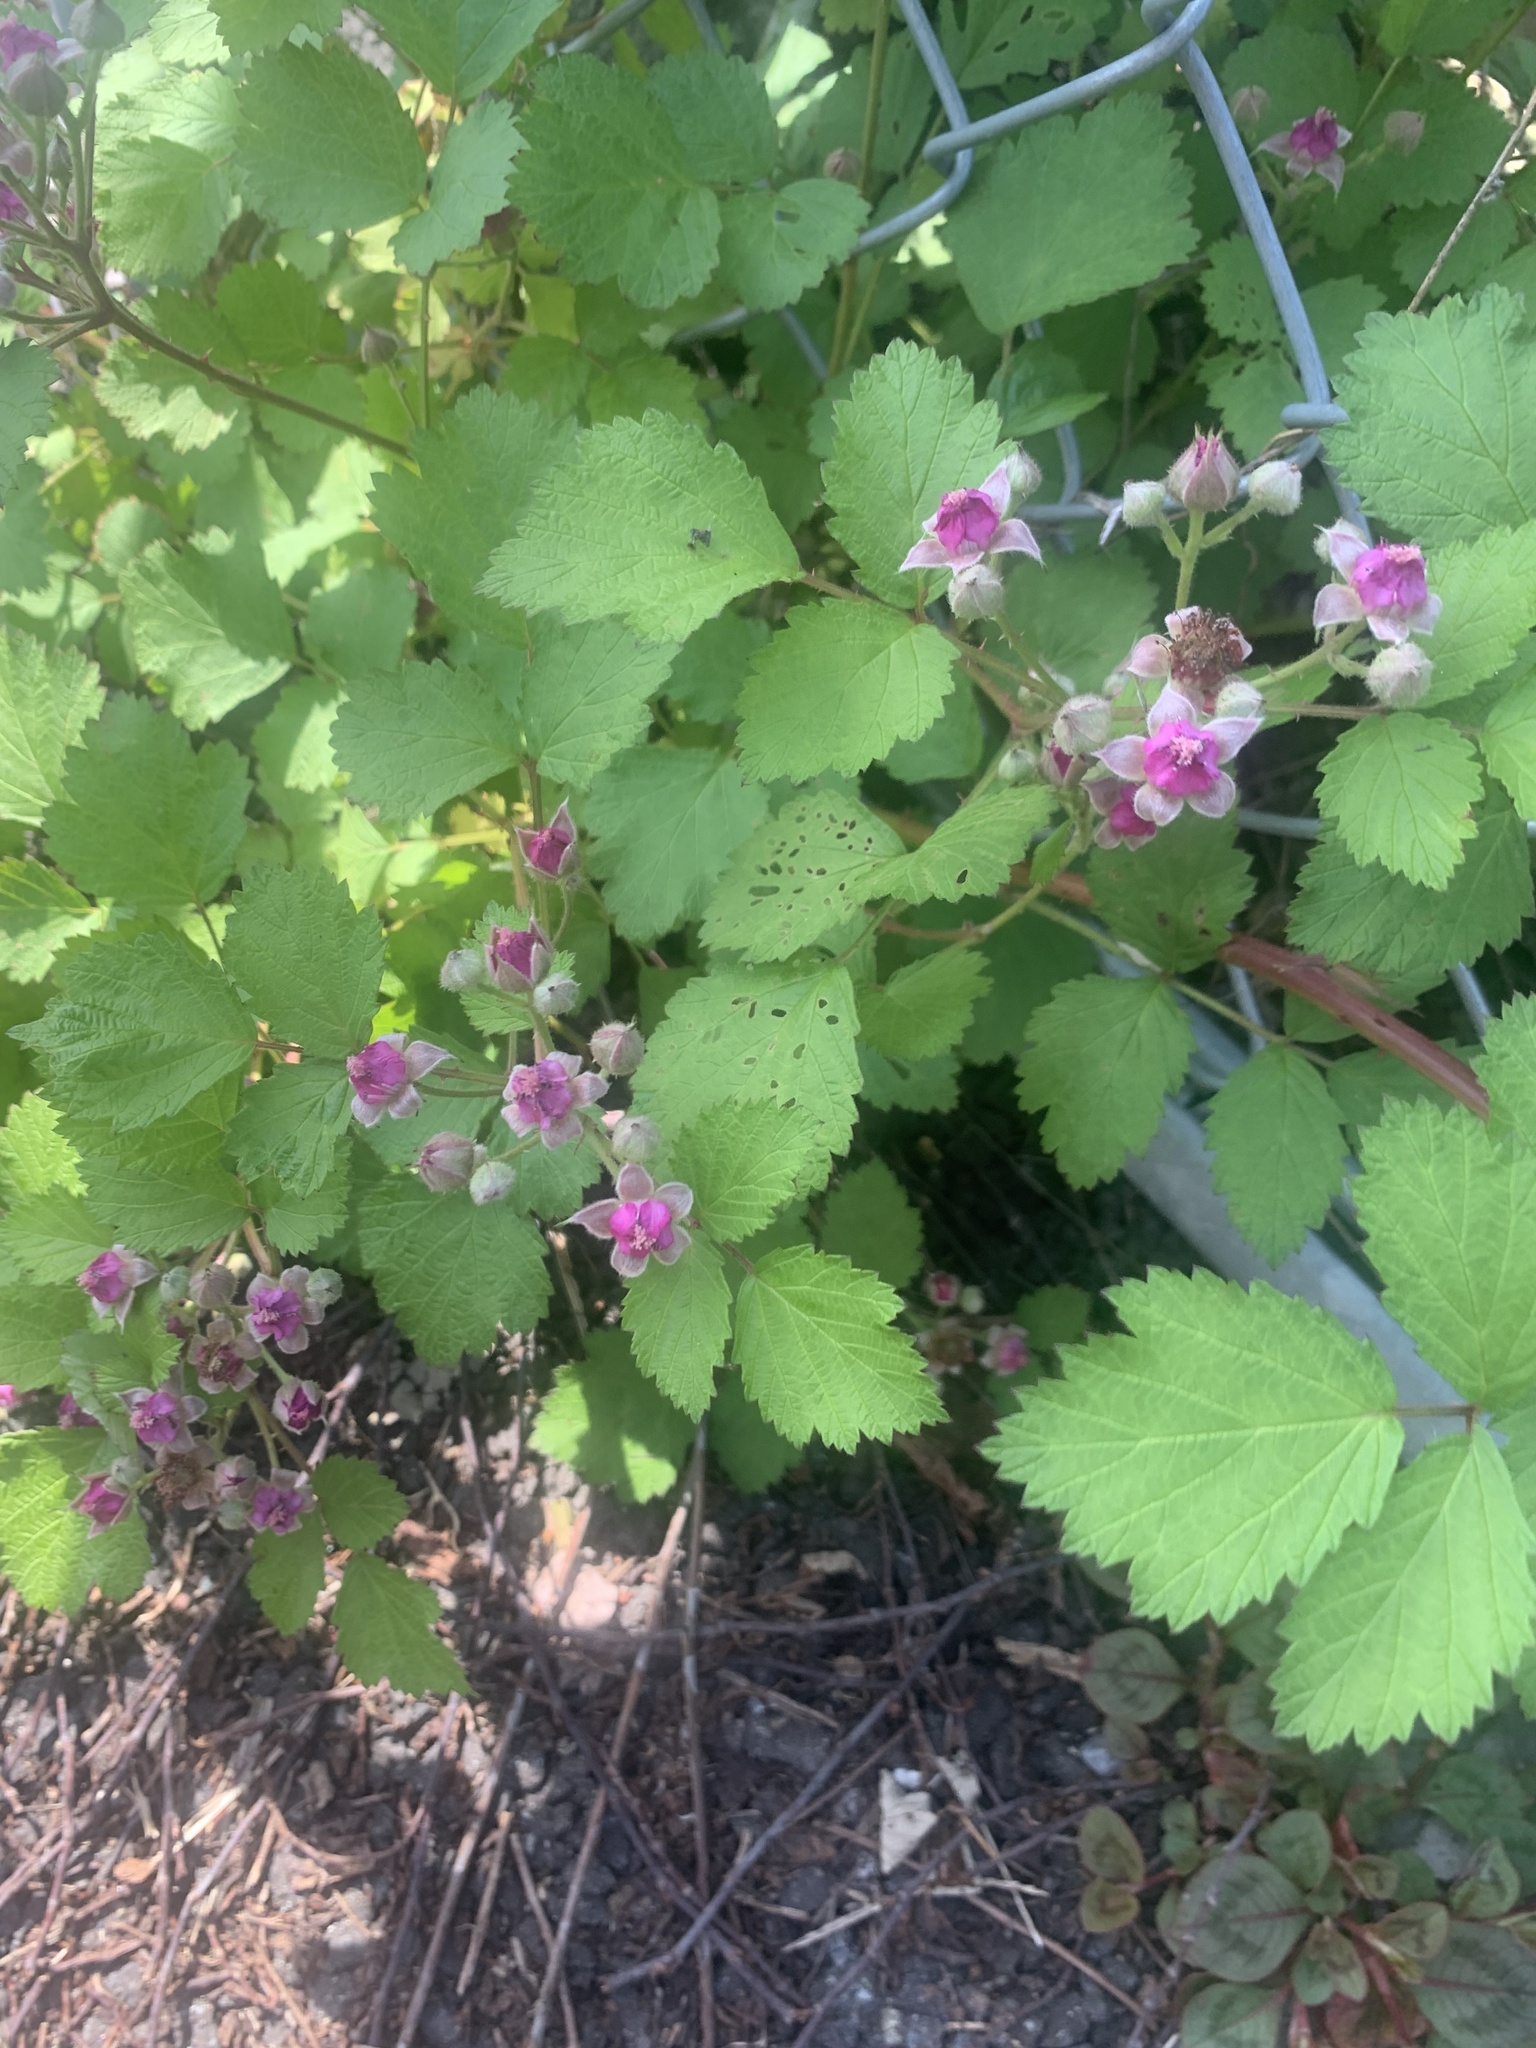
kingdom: Plantae
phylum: Tracheophyta
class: Magnoliopsida
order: Rosales
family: Rosaceae
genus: Rubus
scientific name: Rubus parvifolius
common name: Threeleaf blackberry
